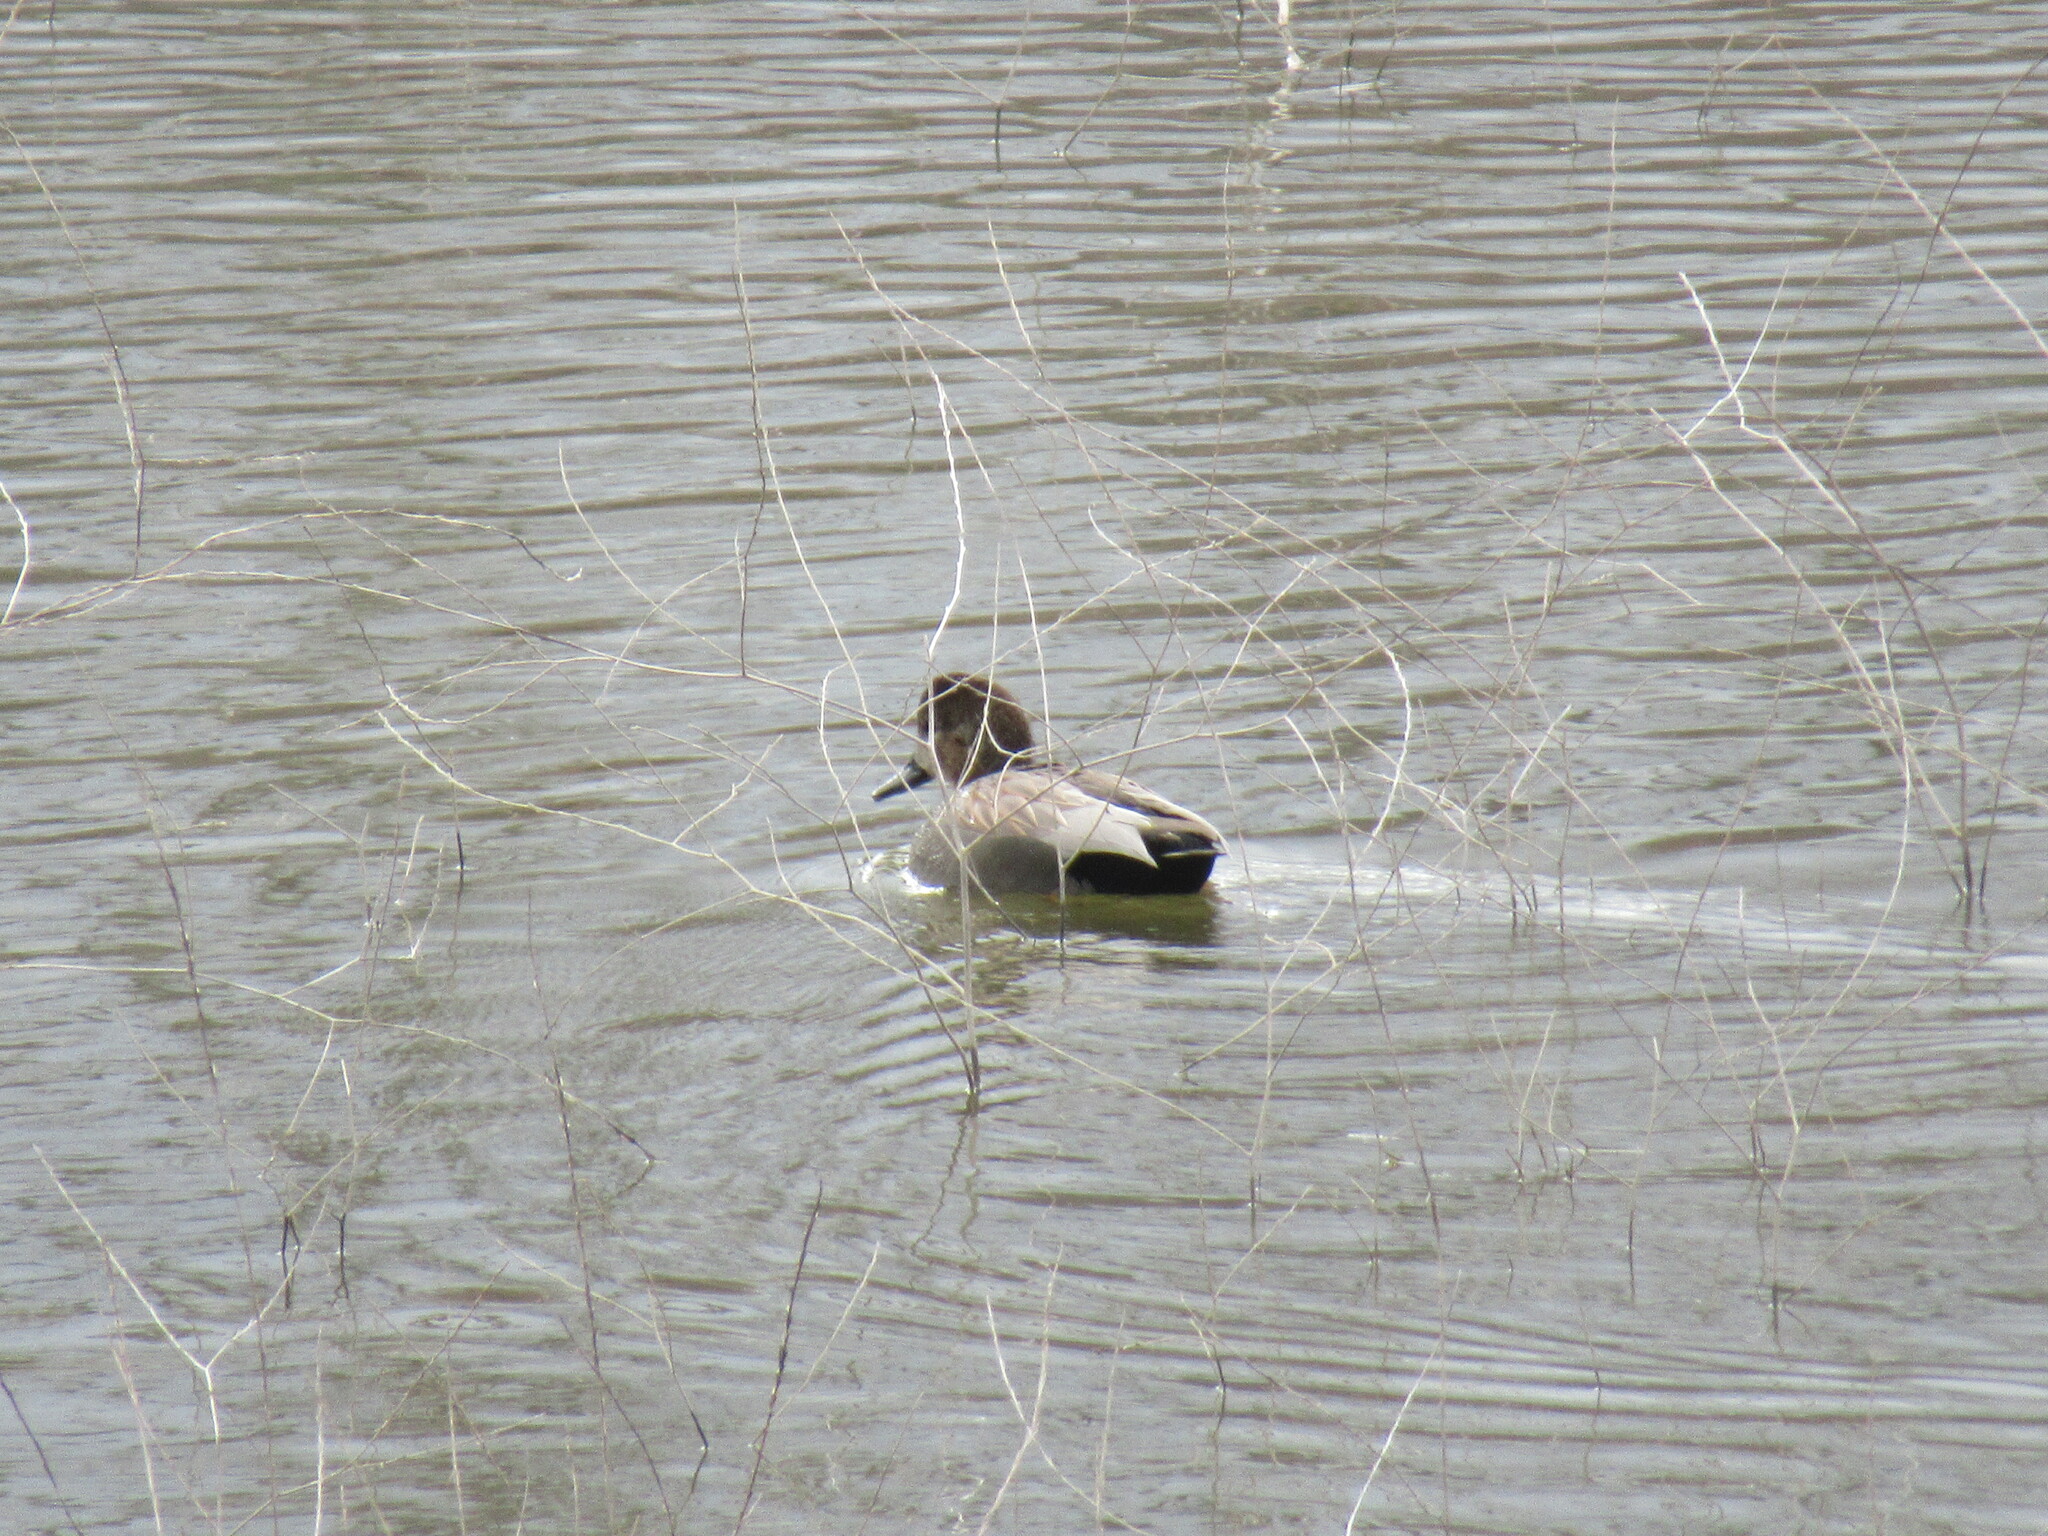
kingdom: Animalia
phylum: Chordata
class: Aves
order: Anseriformes
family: Anatidae
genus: Mareca
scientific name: Mareca strepera
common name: Gadwall
